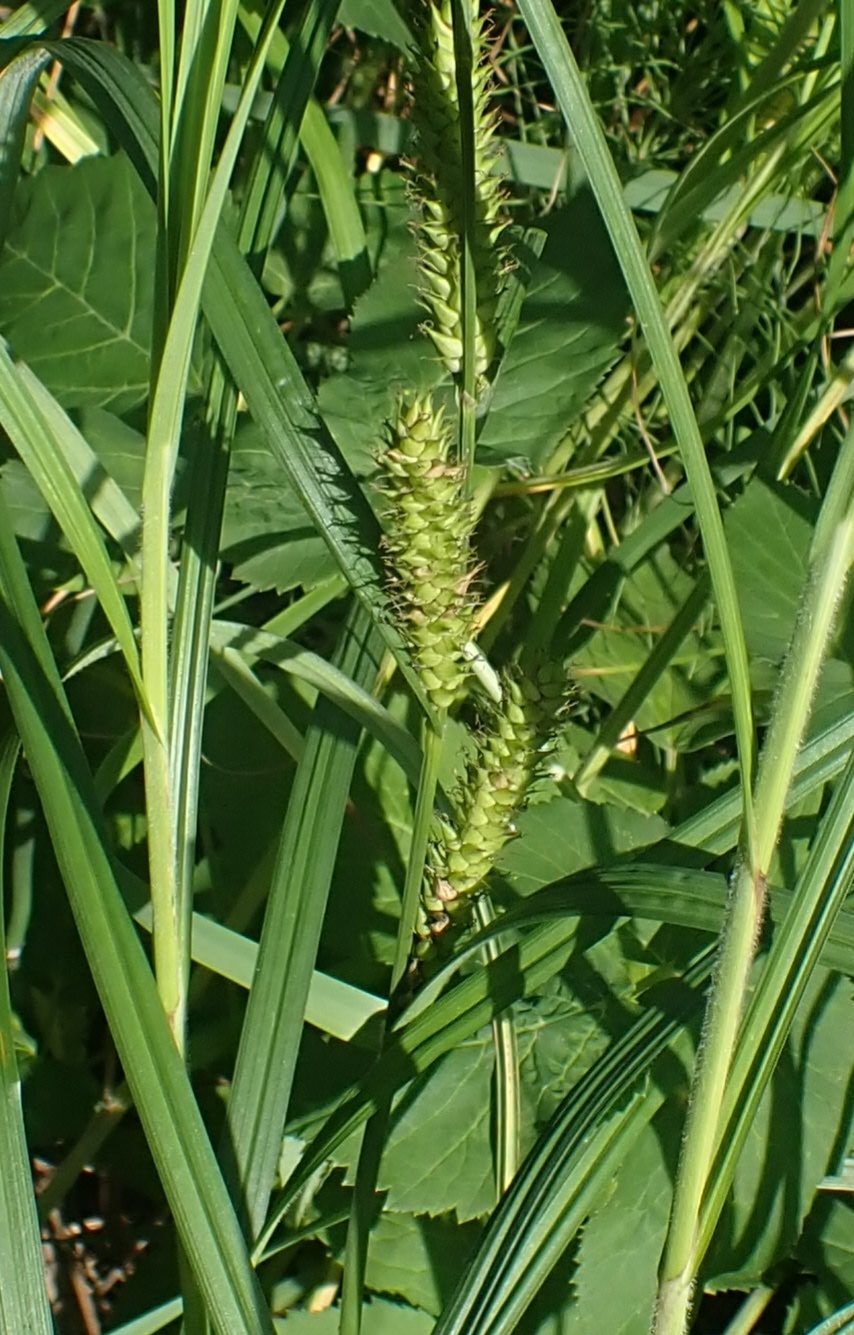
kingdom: Plantae
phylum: Tracheophyta
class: Liliopsida
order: Poales
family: Cyperaceae
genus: Carex
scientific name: Carex atherodes
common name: Wheat sedge
